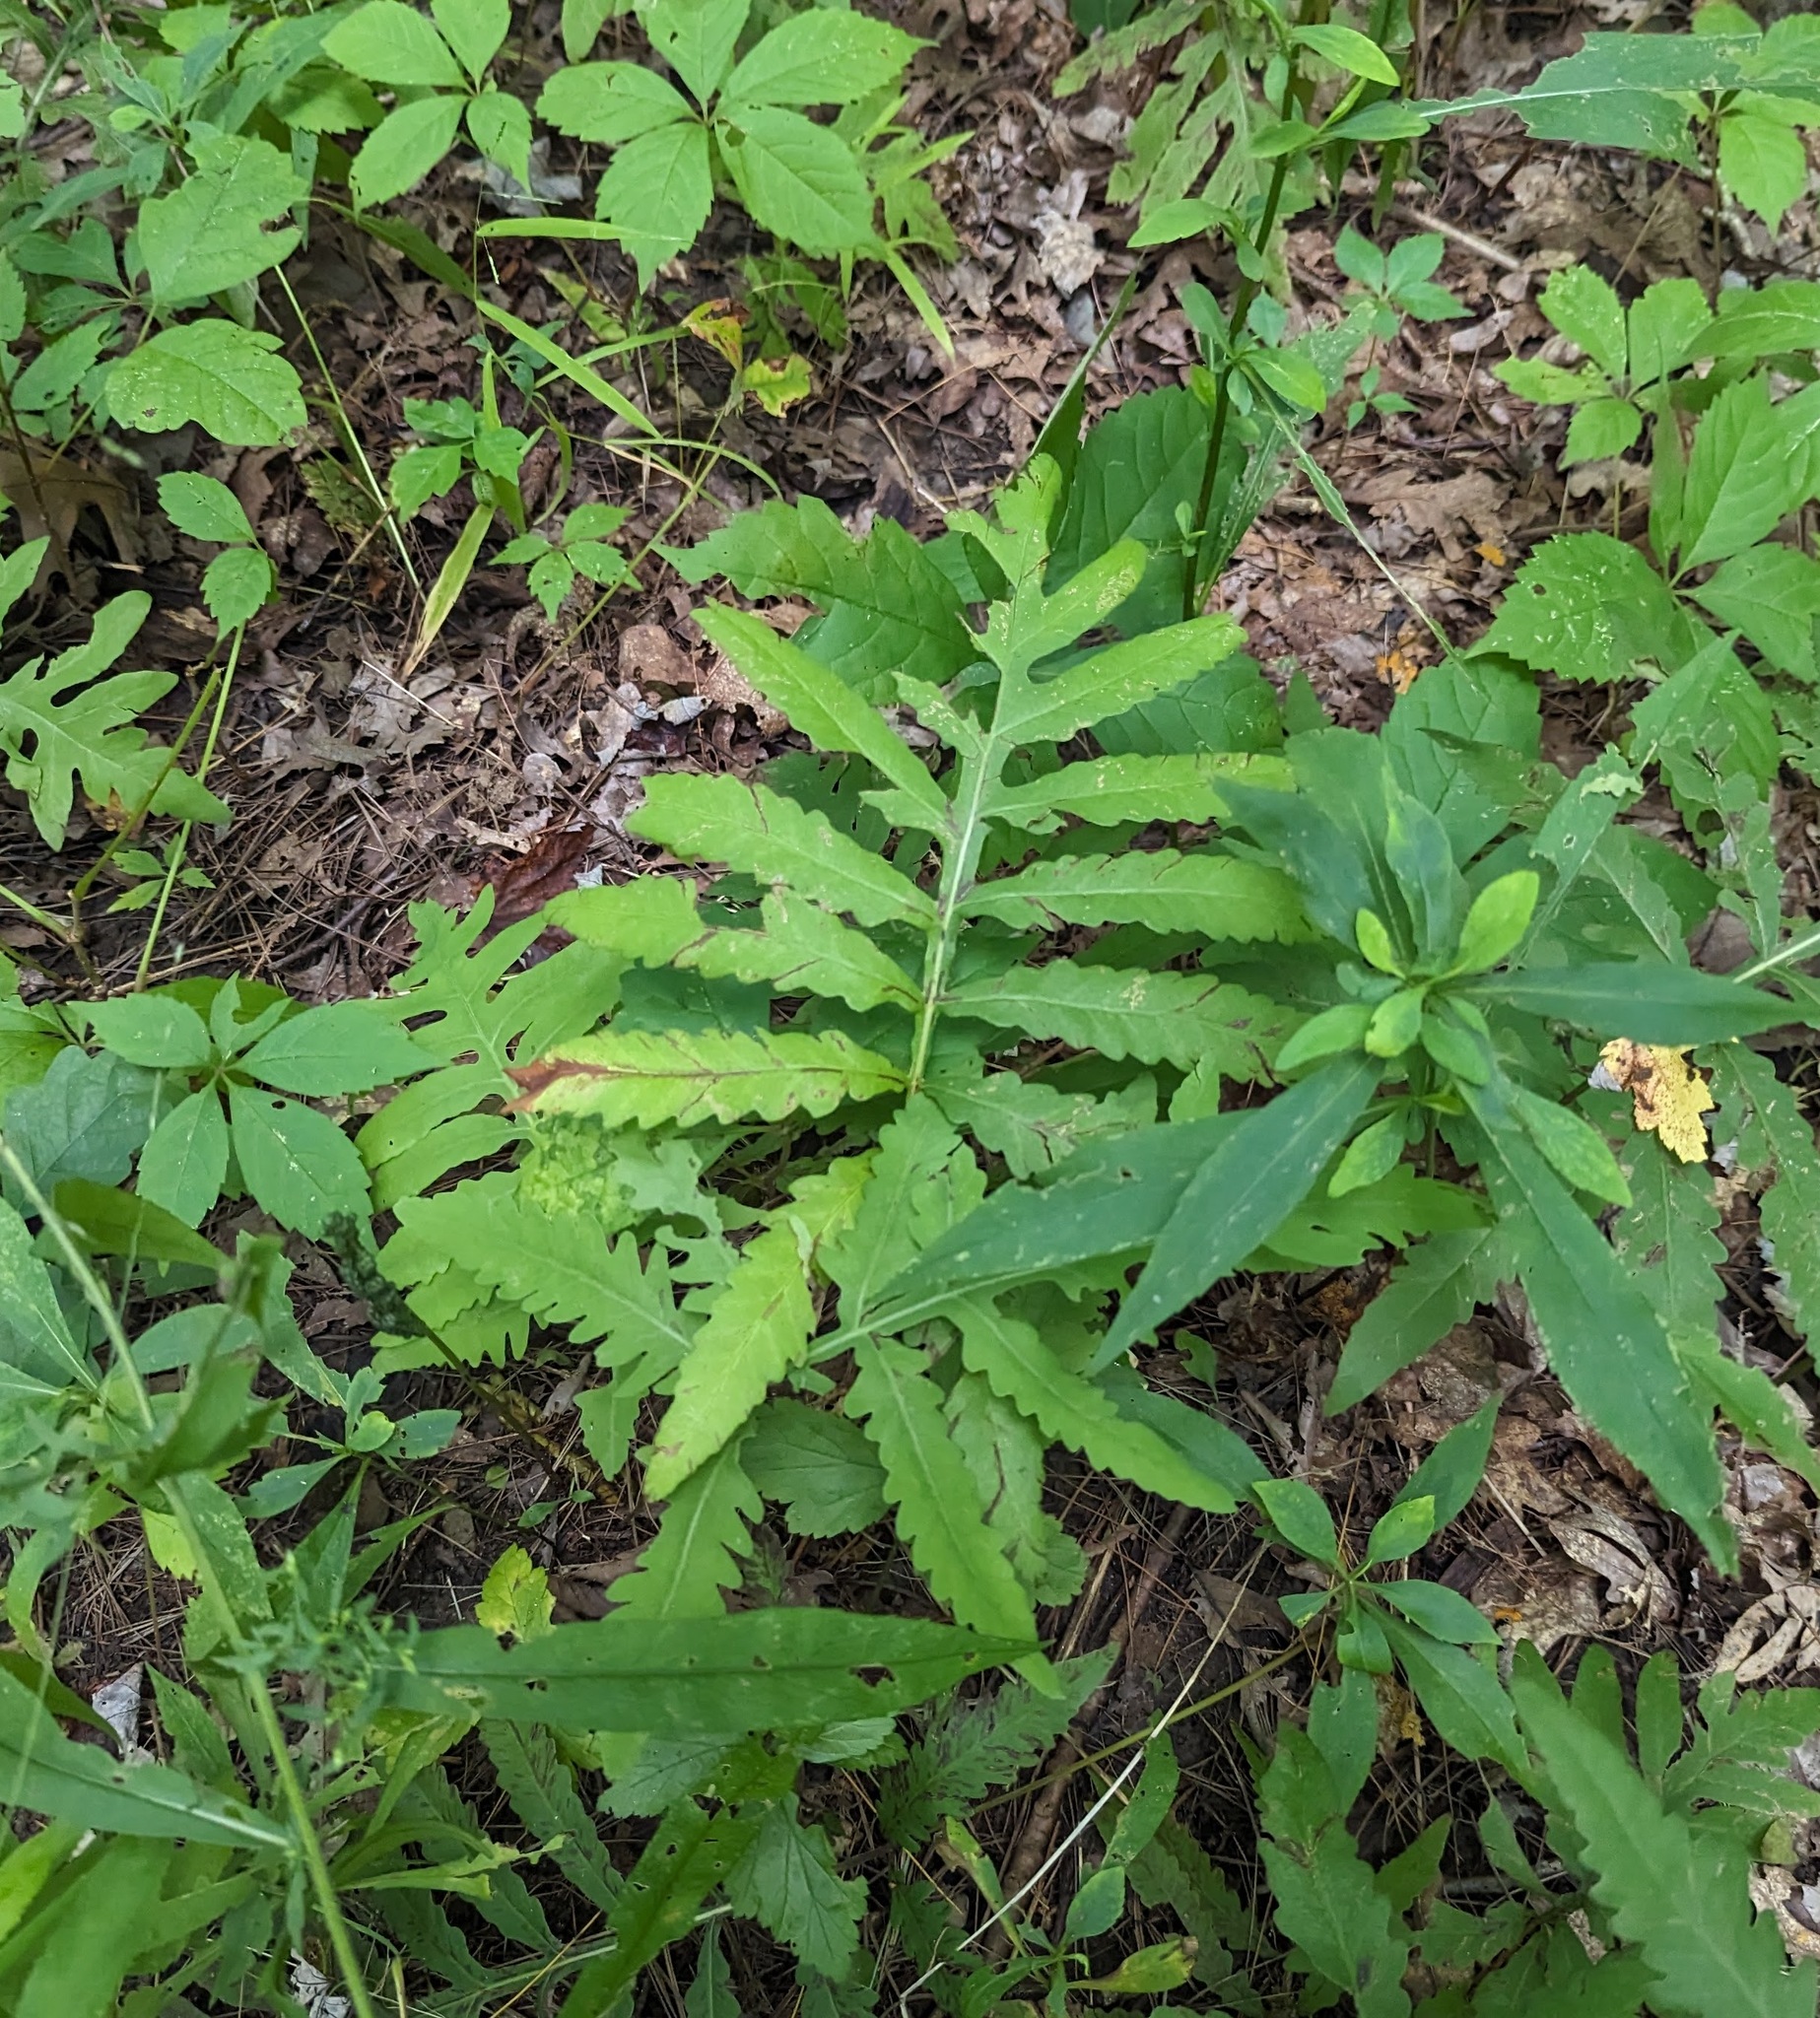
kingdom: Plantae
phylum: Tracheophyta
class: Polypodiopsida
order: Polypodiales
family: Onocleaceae
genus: Onoclea
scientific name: Onoclea sensibilis
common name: Sensitive fern
